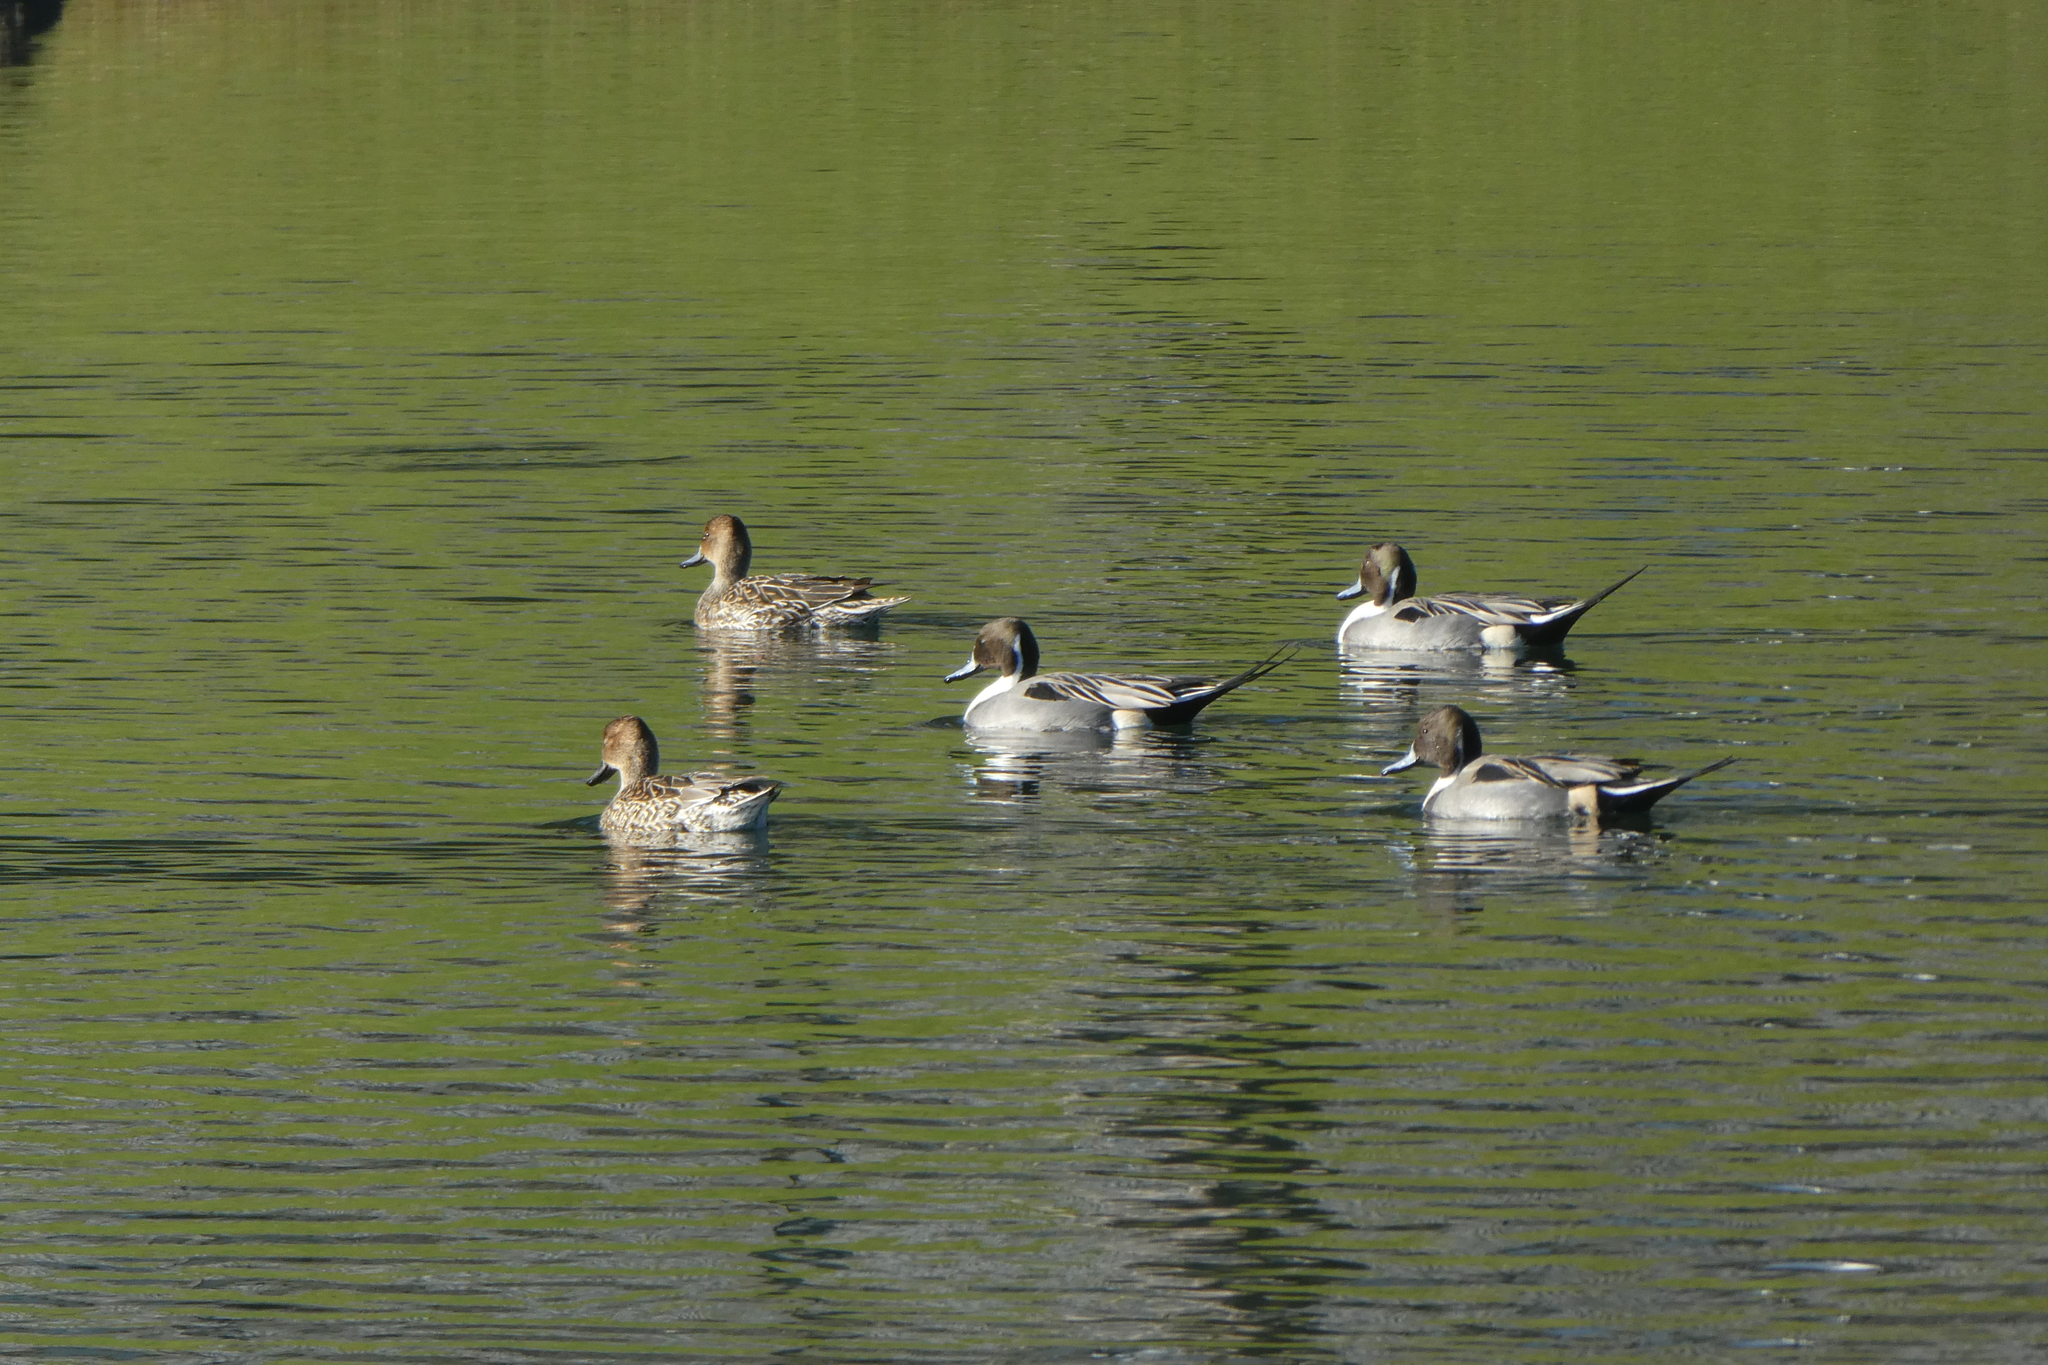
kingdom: Animalia
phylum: Chordata
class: Aves
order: Anseriformes
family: Anatidae
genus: Anas
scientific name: Anas acuta
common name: Northern pintail
